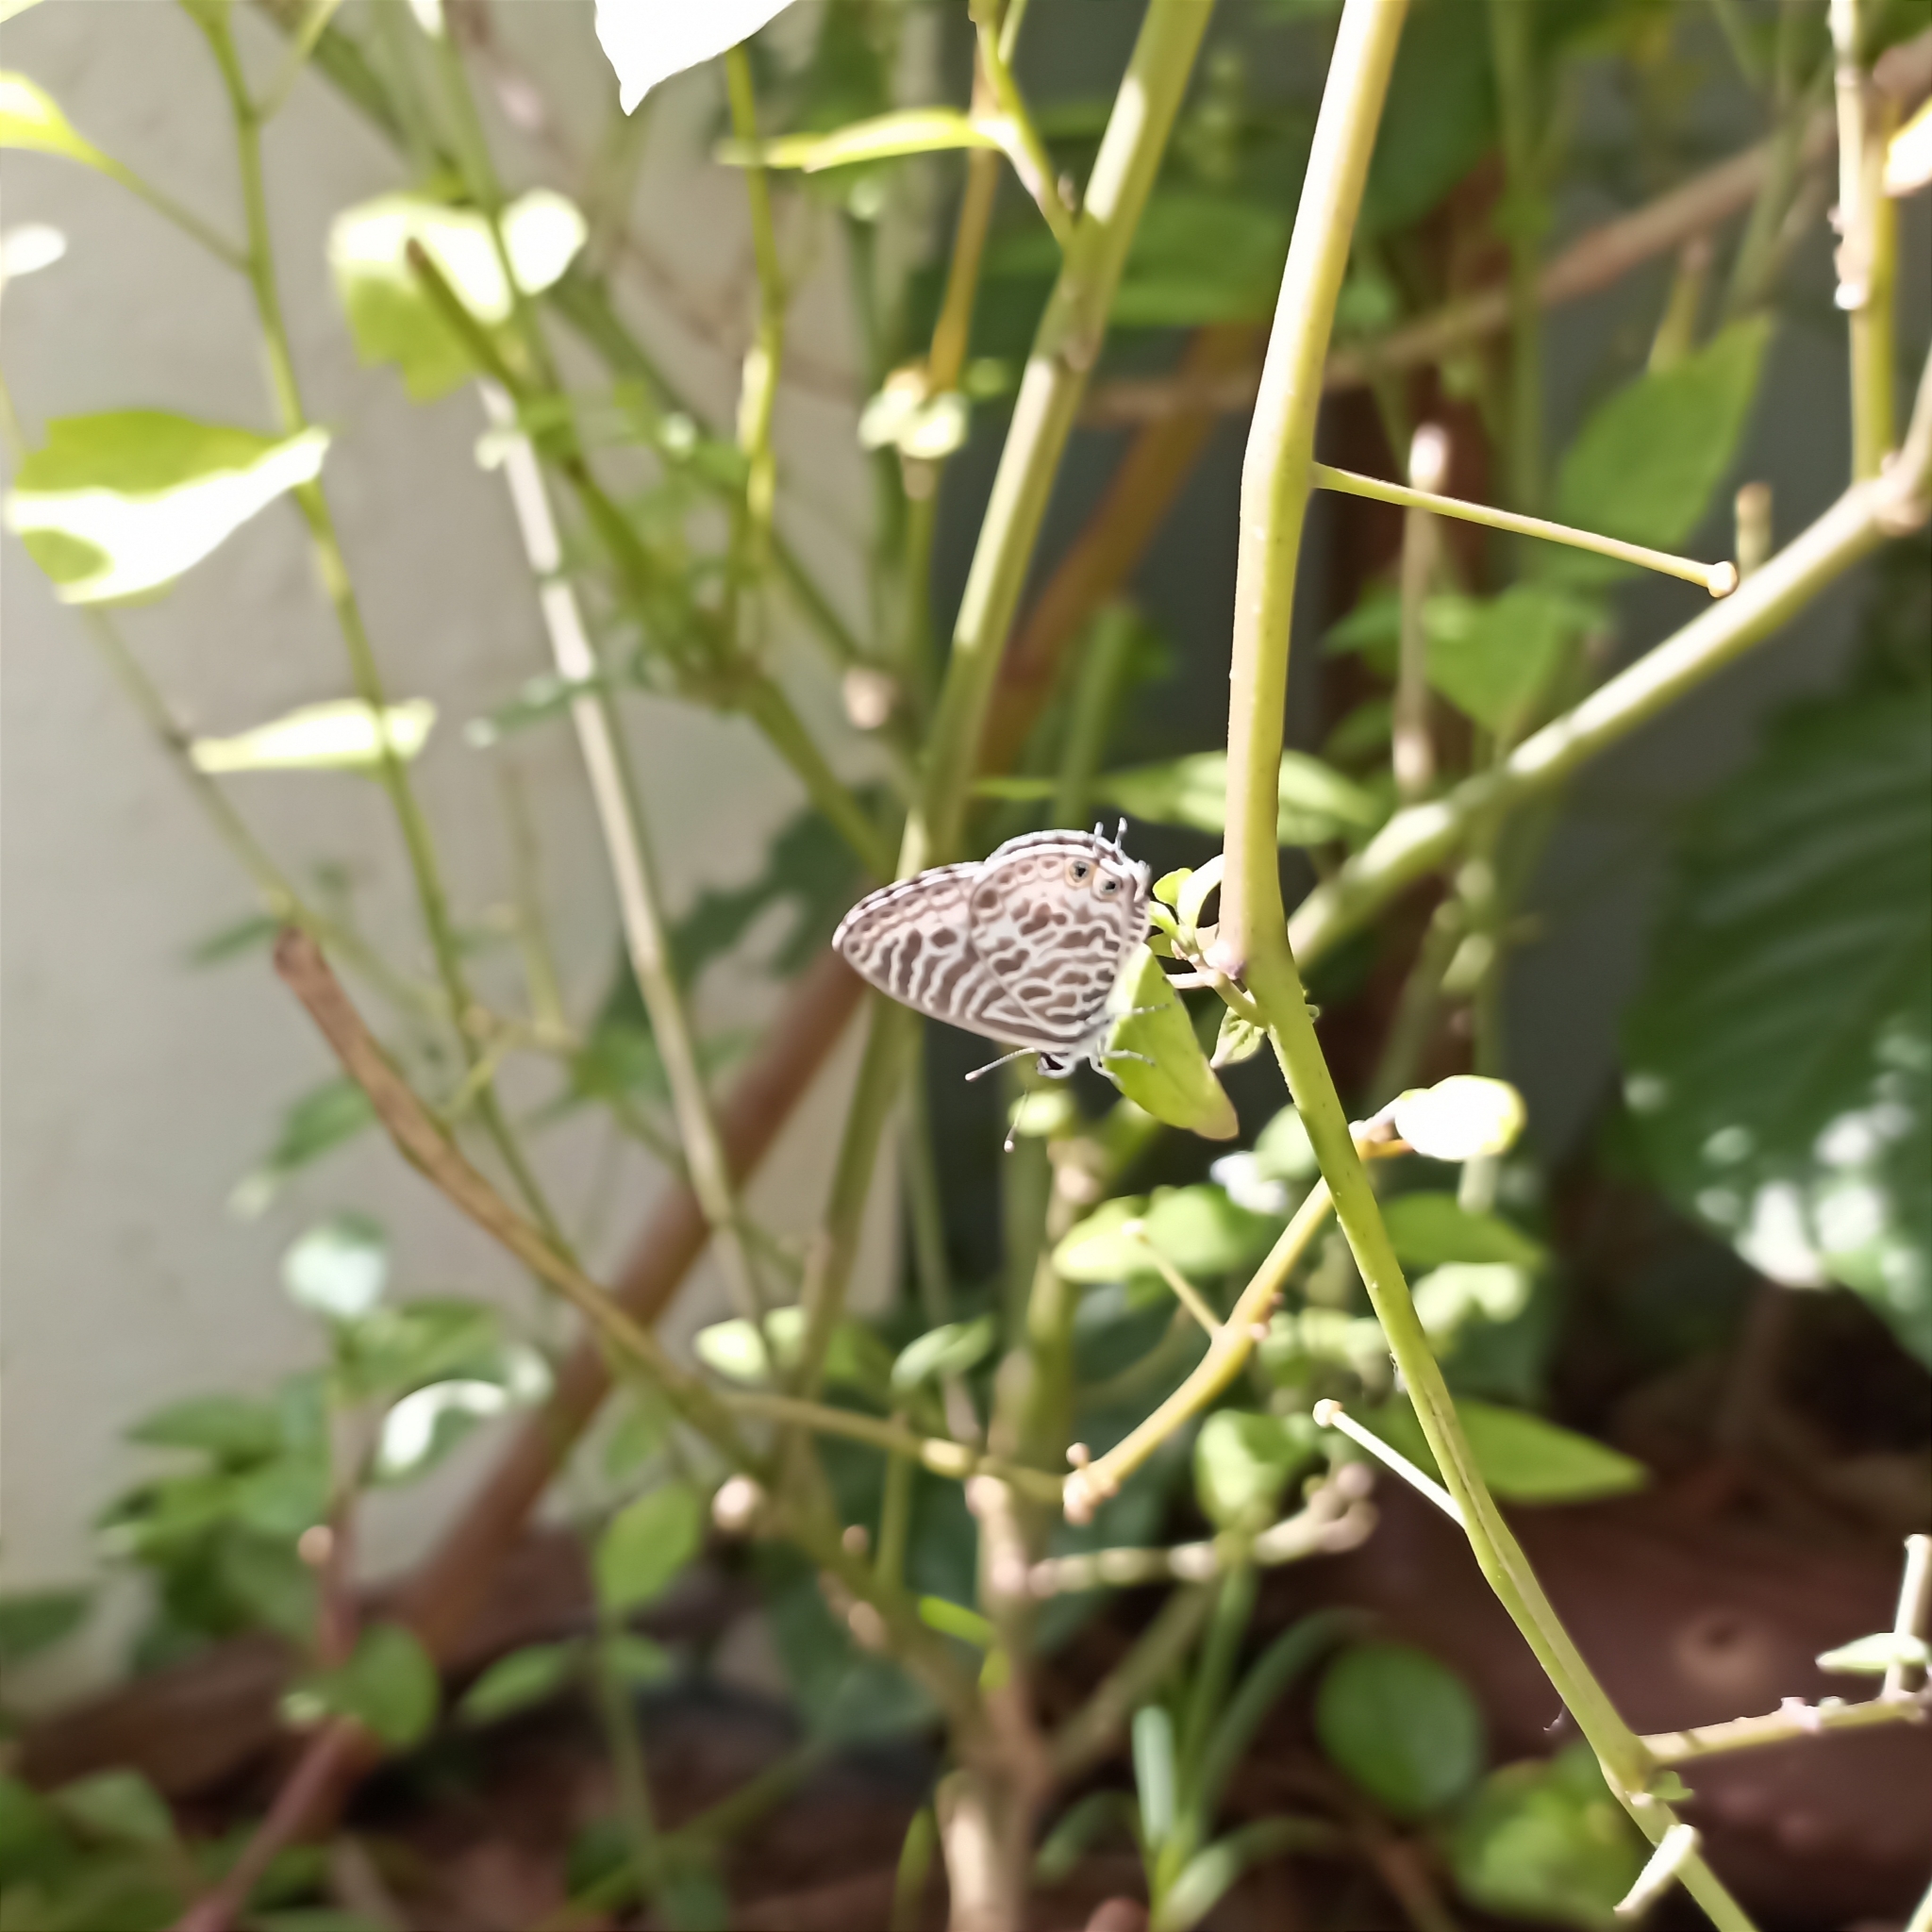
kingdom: Animalia
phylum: Arthropoda
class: Insecta
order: Lepidoptera
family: Lycaenidae
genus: Leptotes
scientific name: Leptotes plinius
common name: Zebra blue
